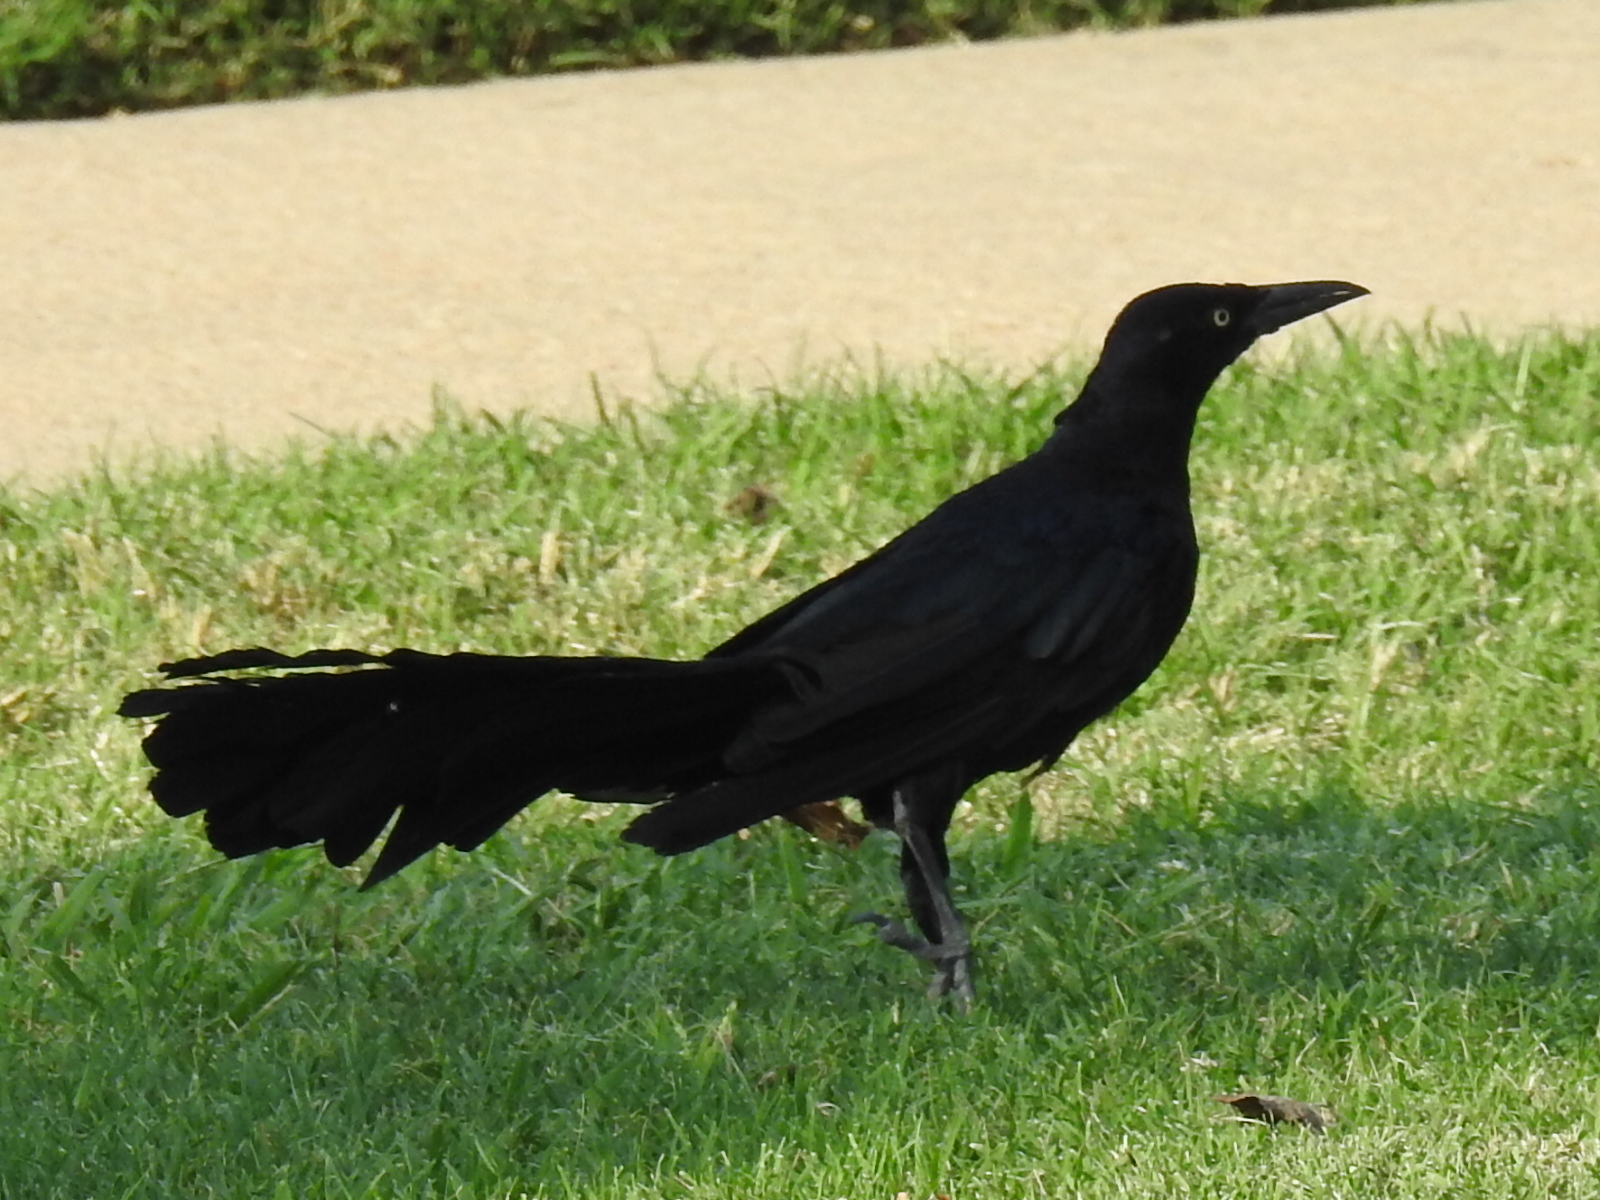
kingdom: Animalia
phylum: Chordata
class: Aves
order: Passeriformes
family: Icteridae
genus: Quiscalus
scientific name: Quiscalus mexicanus
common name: Great-tailed grackle
